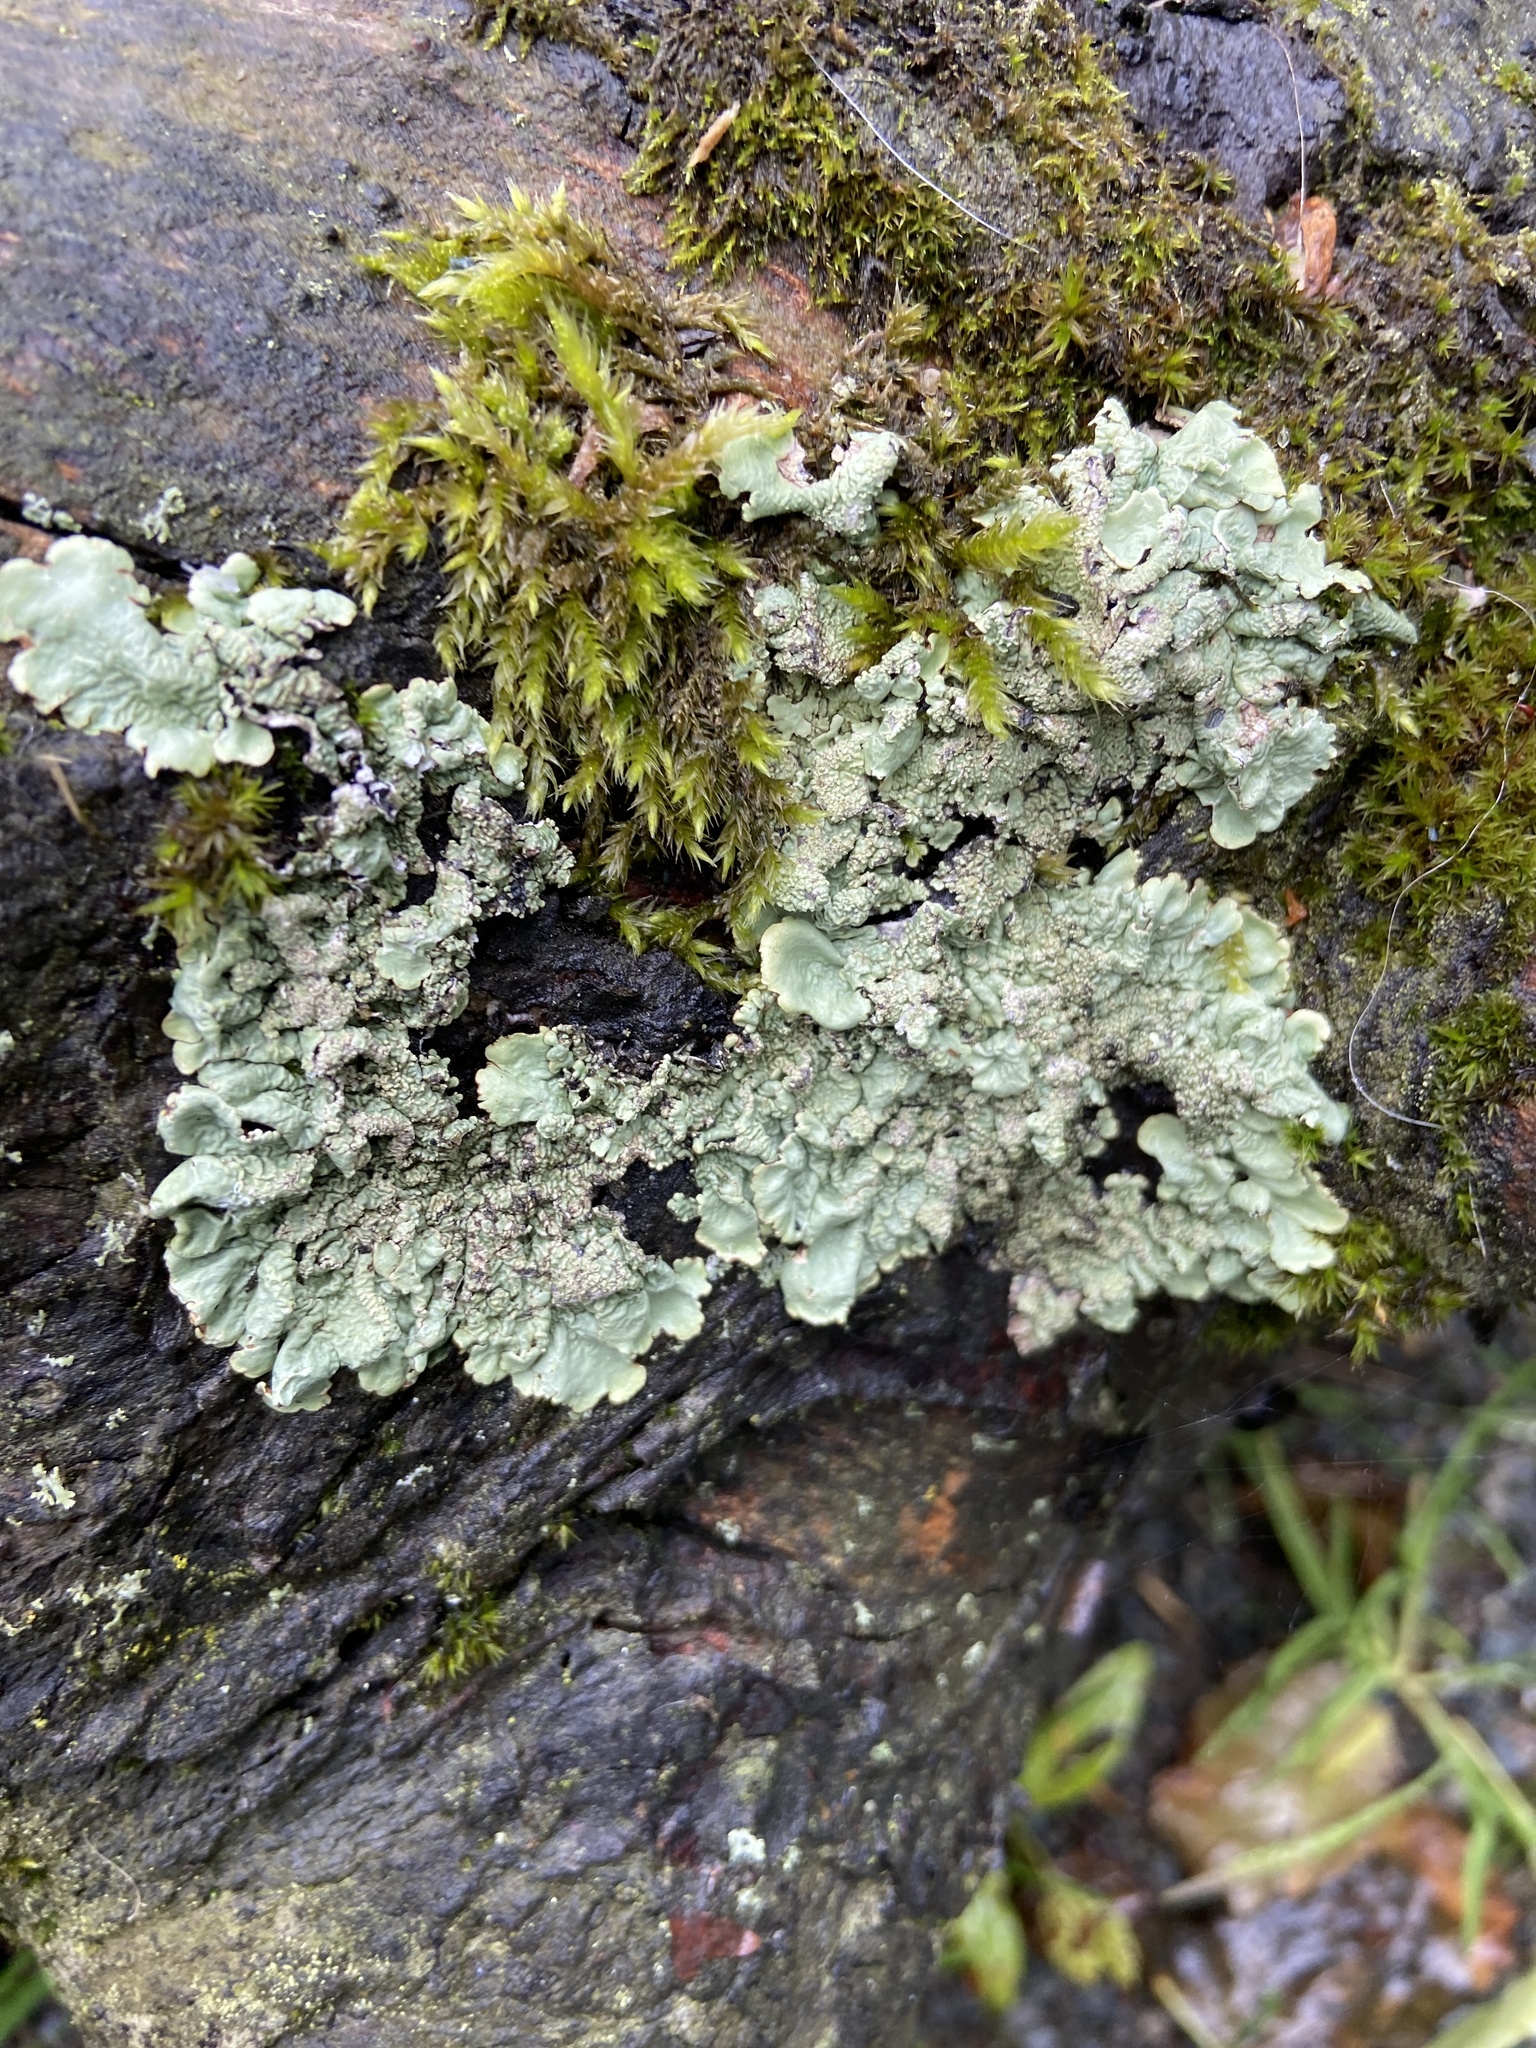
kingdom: Fungi
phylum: Ascomycota
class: Lecanoromycetes
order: Lecanorales
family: Parmeliaceae
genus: Flavoparmelia
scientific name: Flavoparmelia caperata
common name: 40-mile per hour lichen
